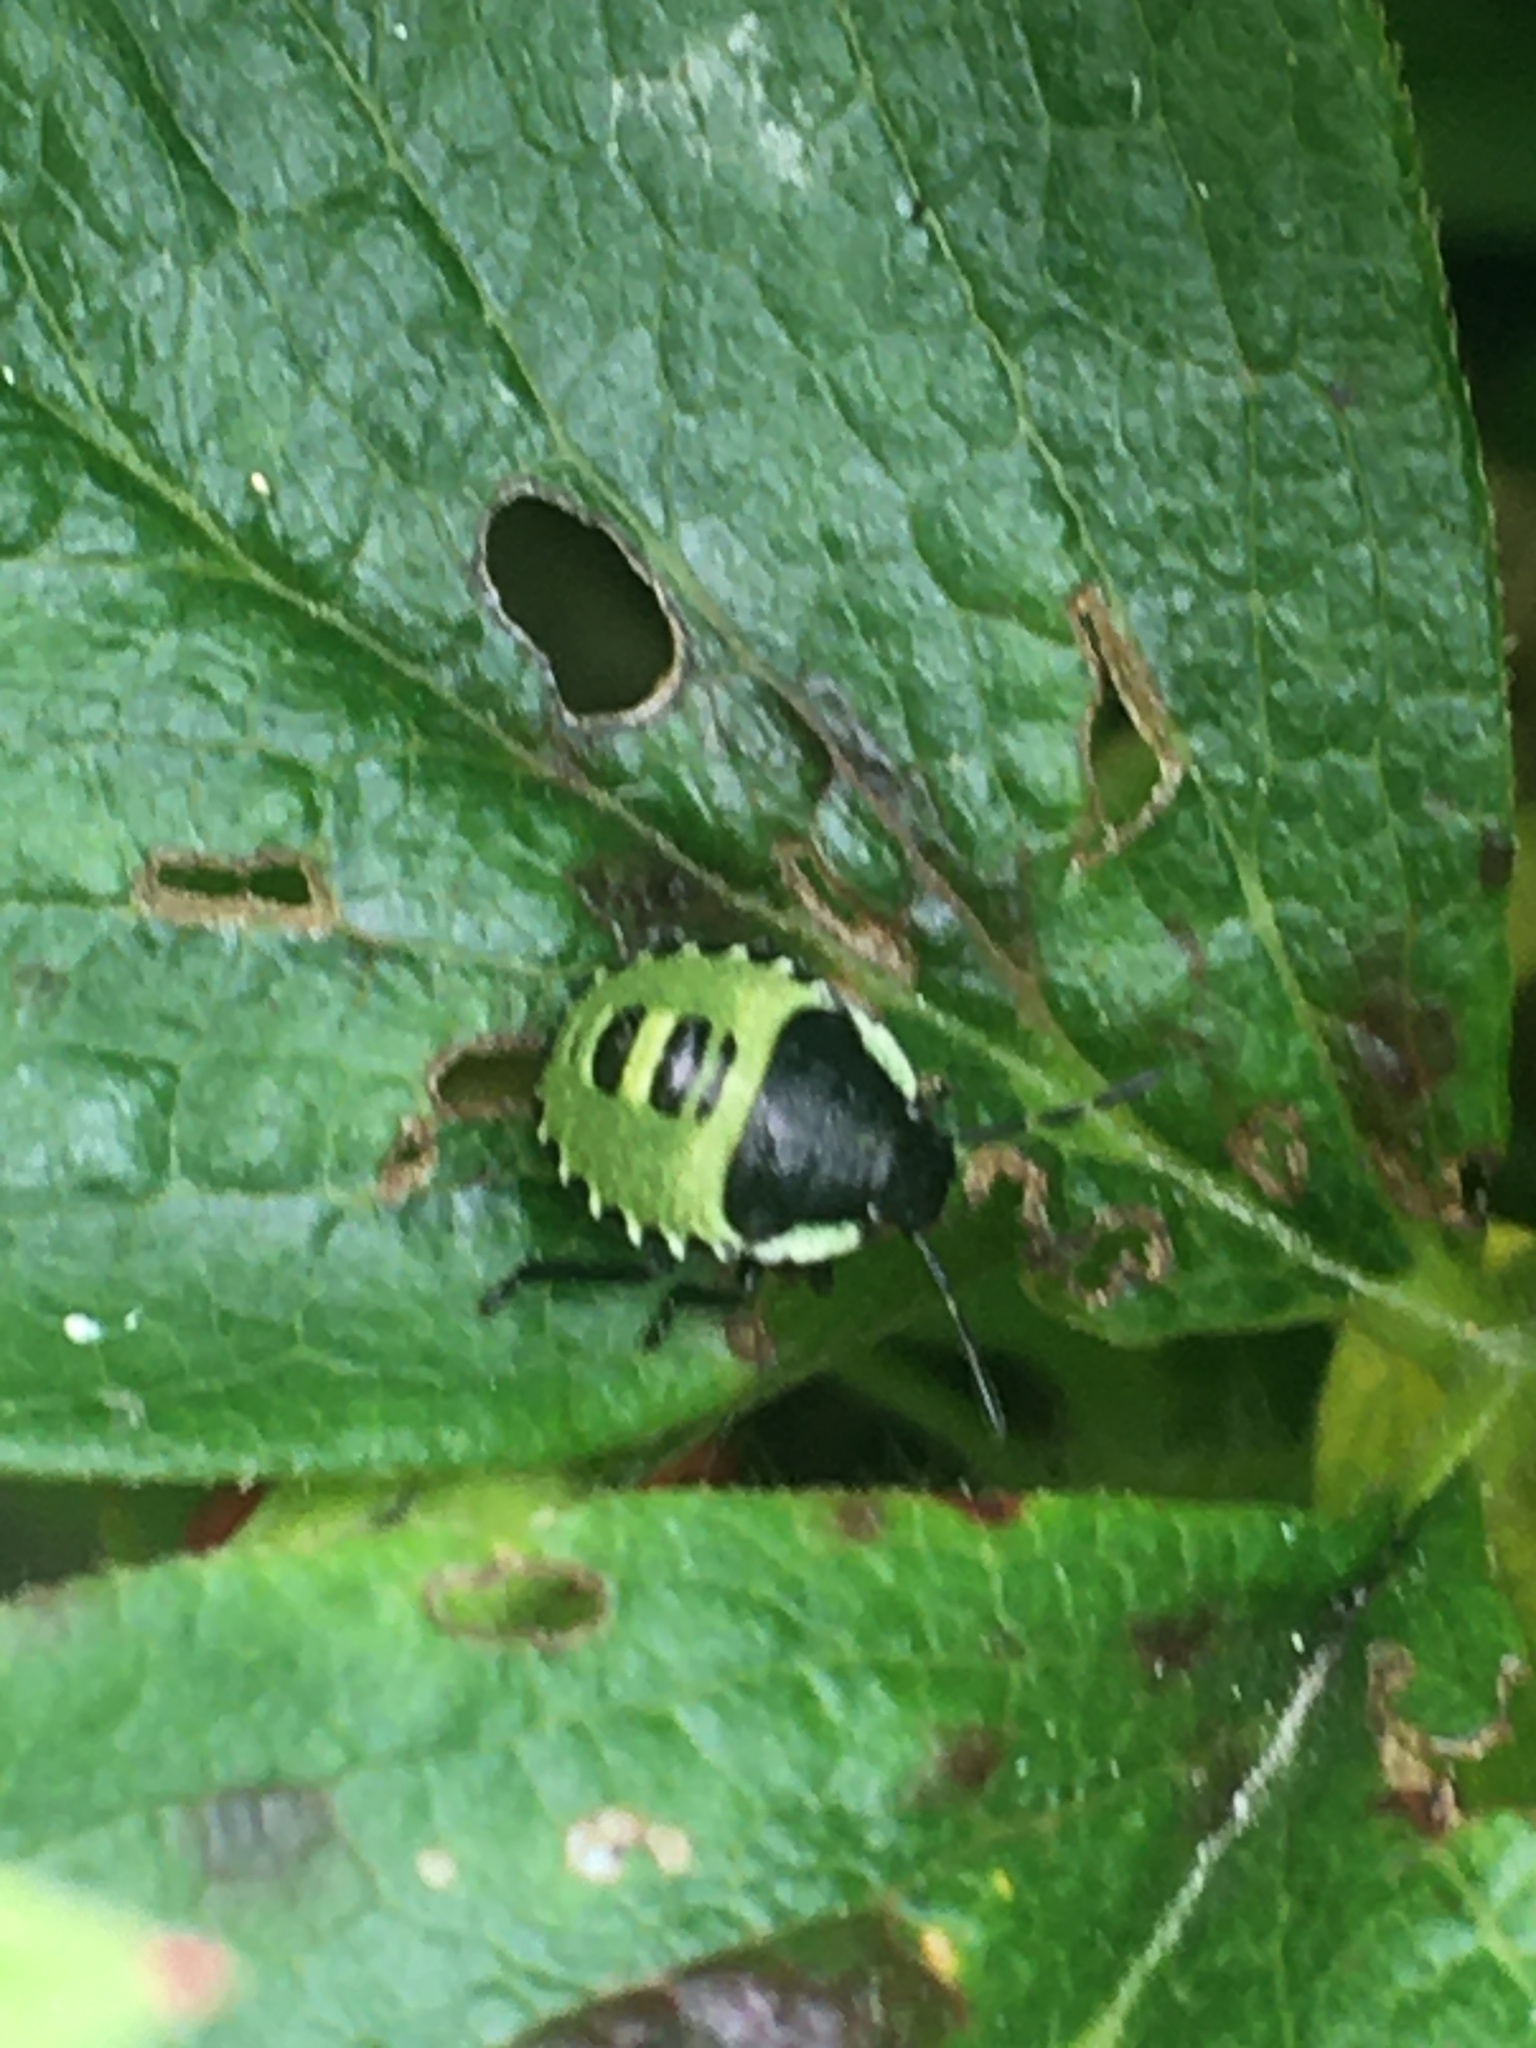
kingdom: Animalia
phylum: Arthropoda
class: Insecta
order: Hemiptera
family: Pentatomidae
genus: Palomena
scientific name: Palomena prasina
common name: Green shieldbug
